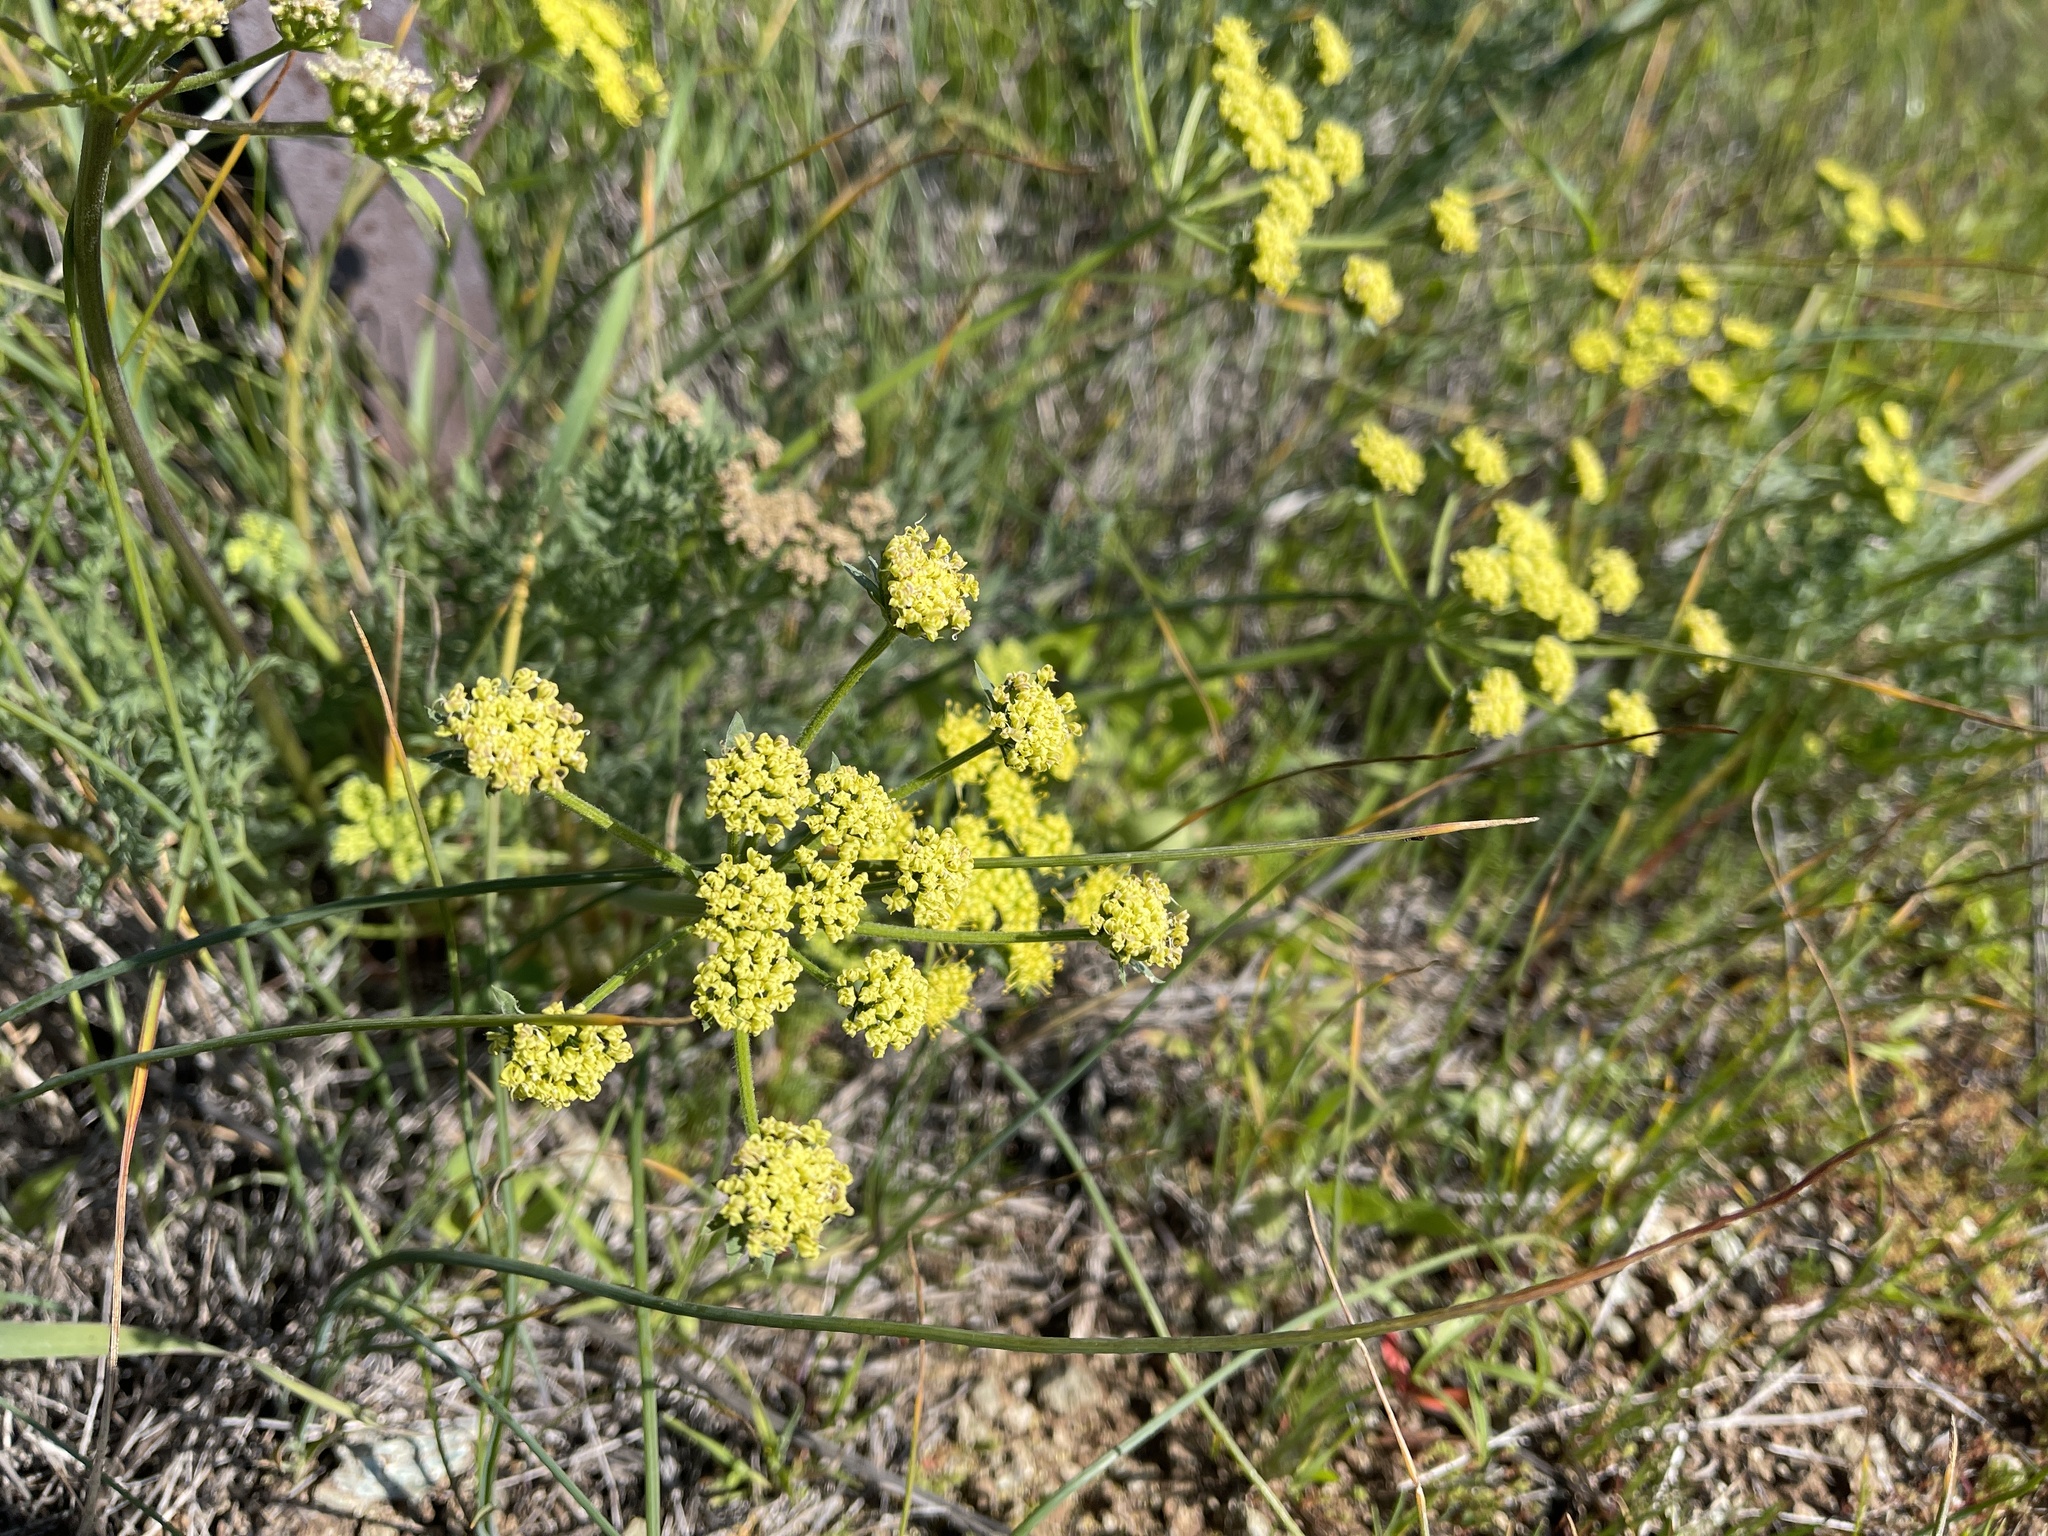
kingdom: Plantae
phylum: Tracheophyta
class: Magnoliopsida
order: Apiales
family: Apiaceae
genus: Lomatium
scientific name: Lomatium macrocarpum
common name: Big-seed biscuitroot
